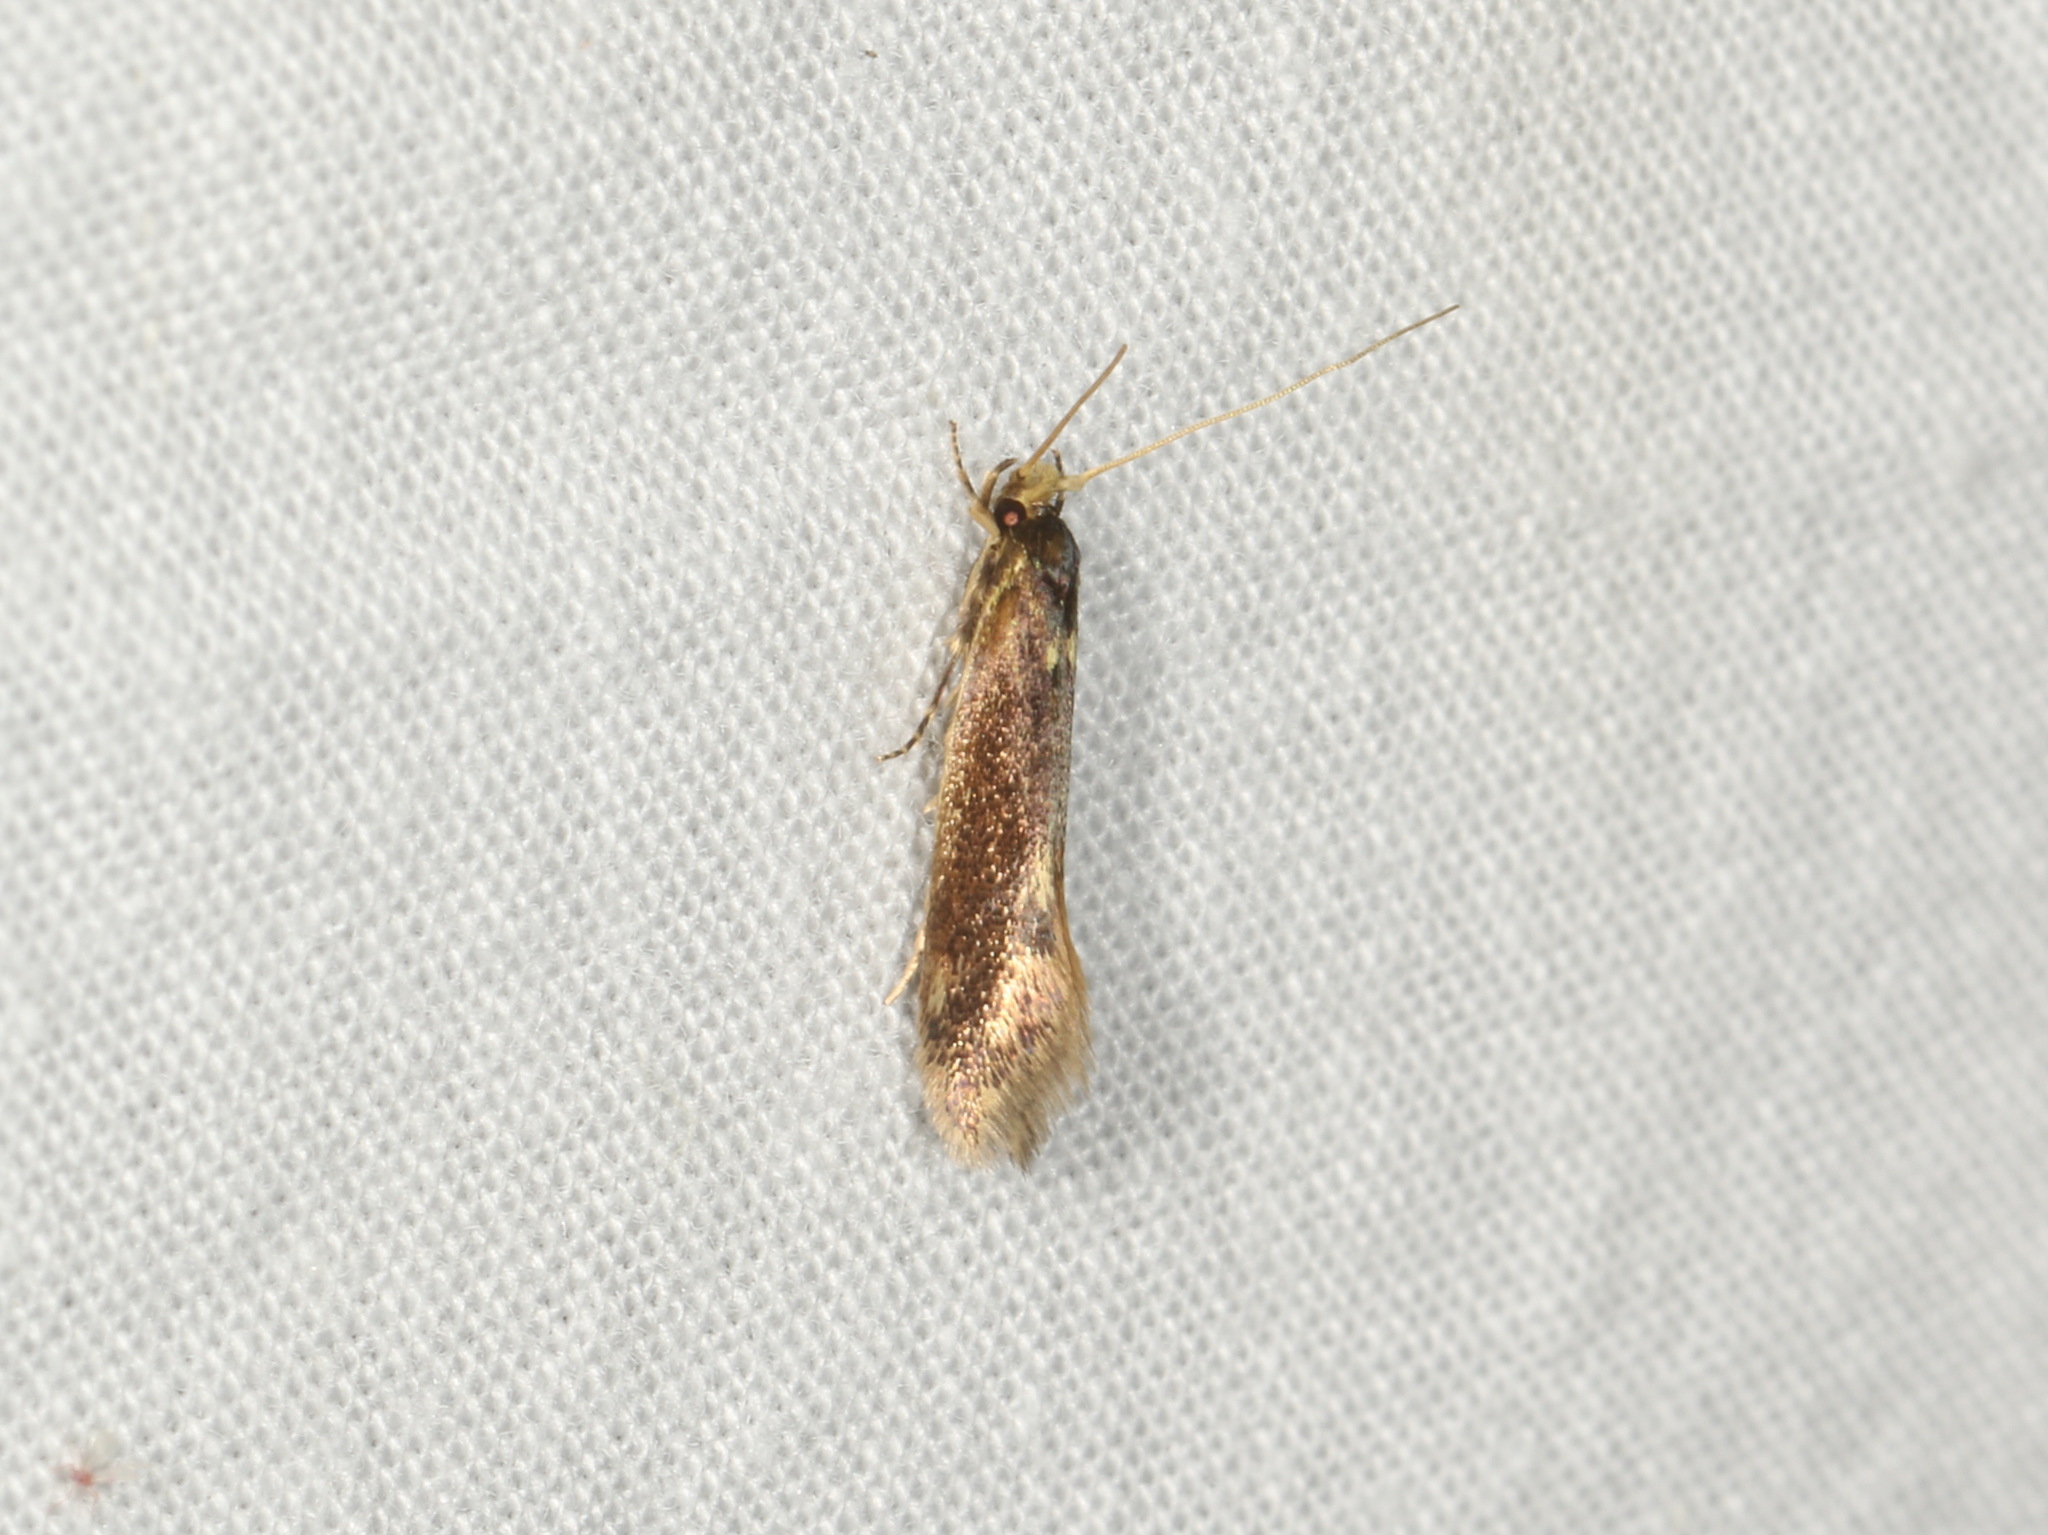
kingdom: Animalia
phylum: Arthropoda
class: Insecta
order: Lepidoptera
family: Tineidae
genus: Opogona
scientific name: Opogona omoscopa
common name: Moth
